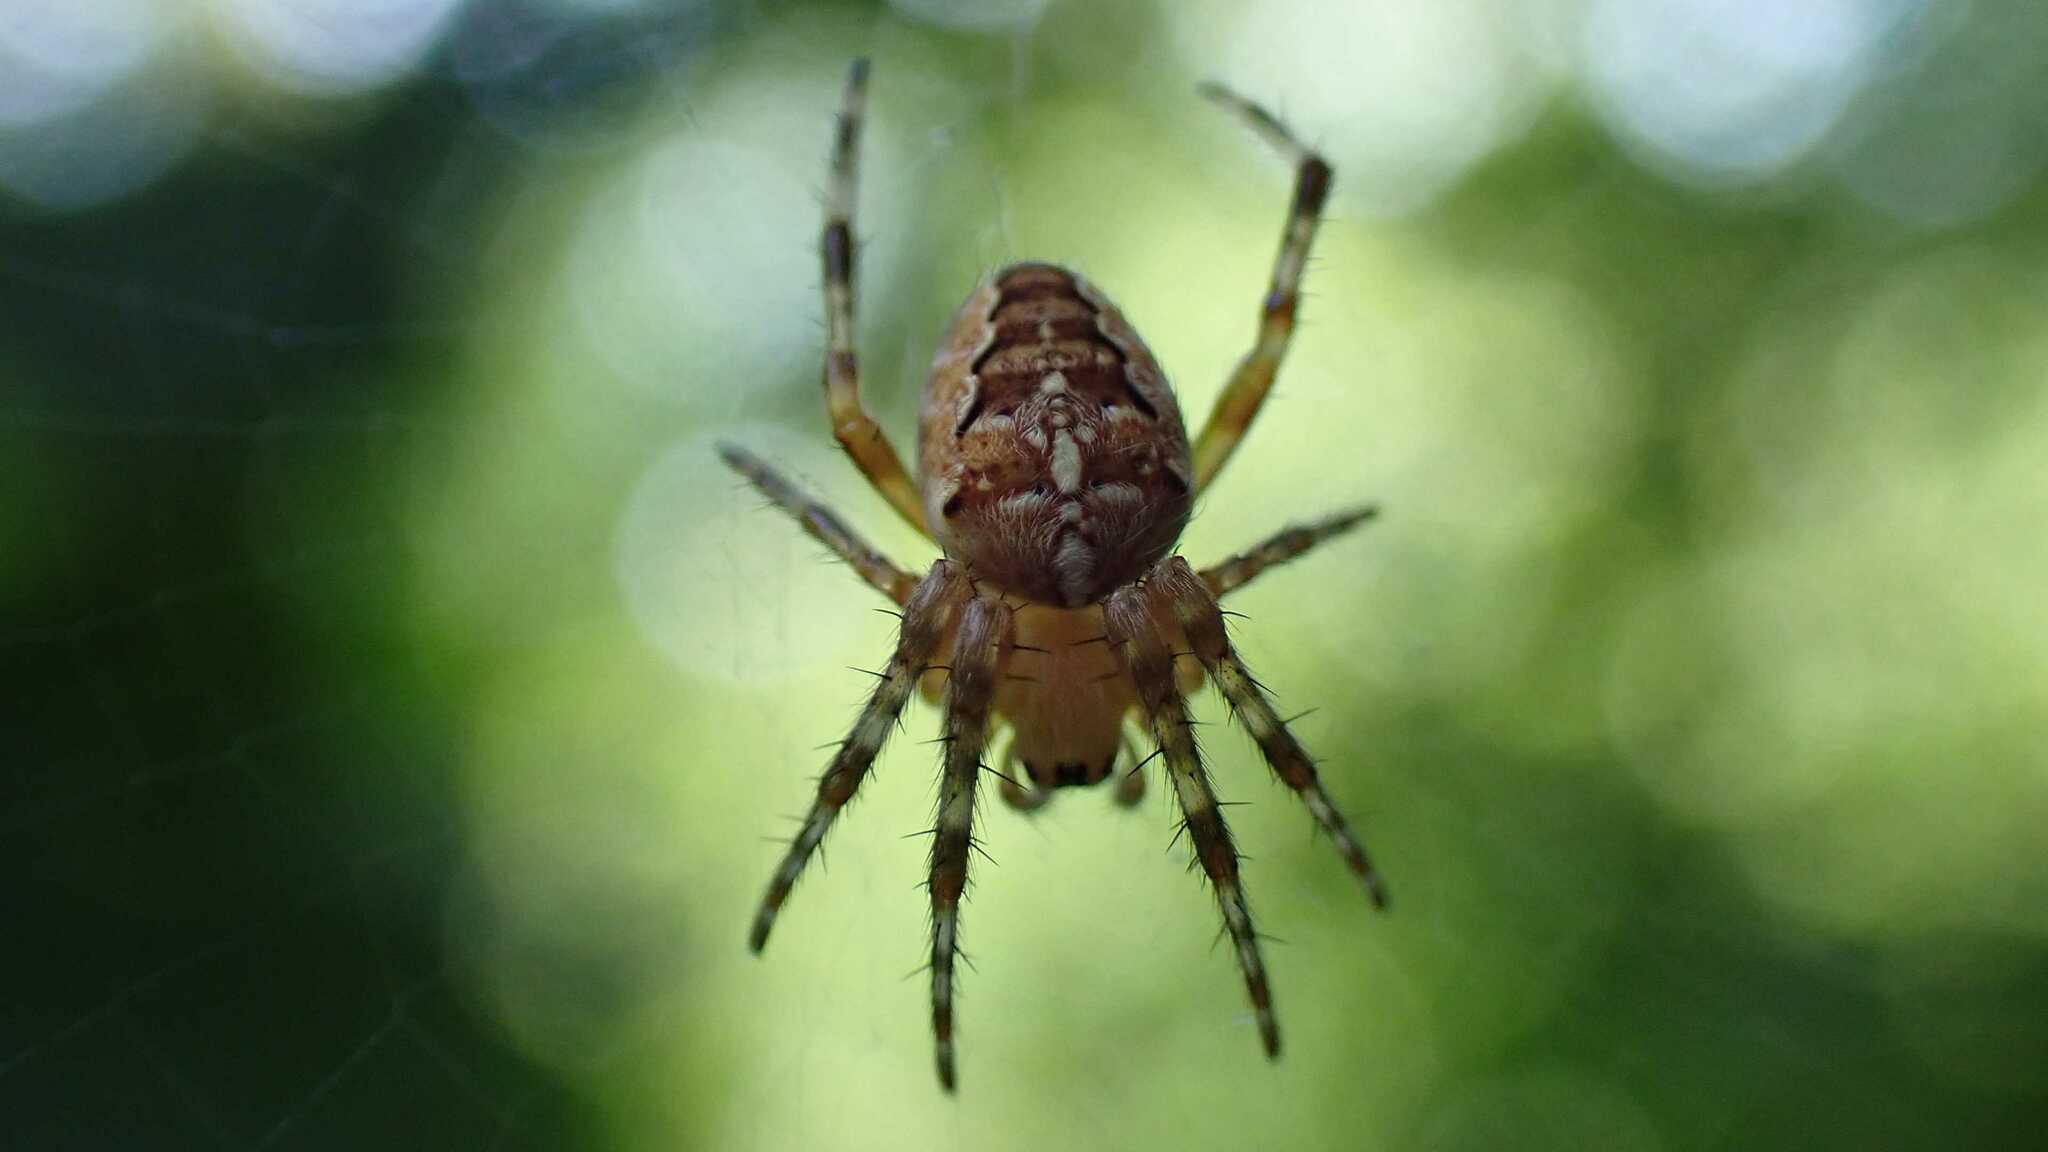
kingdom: Animalia
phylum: Arthropoda
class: Arachnida
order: Araneae
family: Araneidae
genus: Araneus
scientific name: Araneus diadematus
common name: Cross orbweaver
